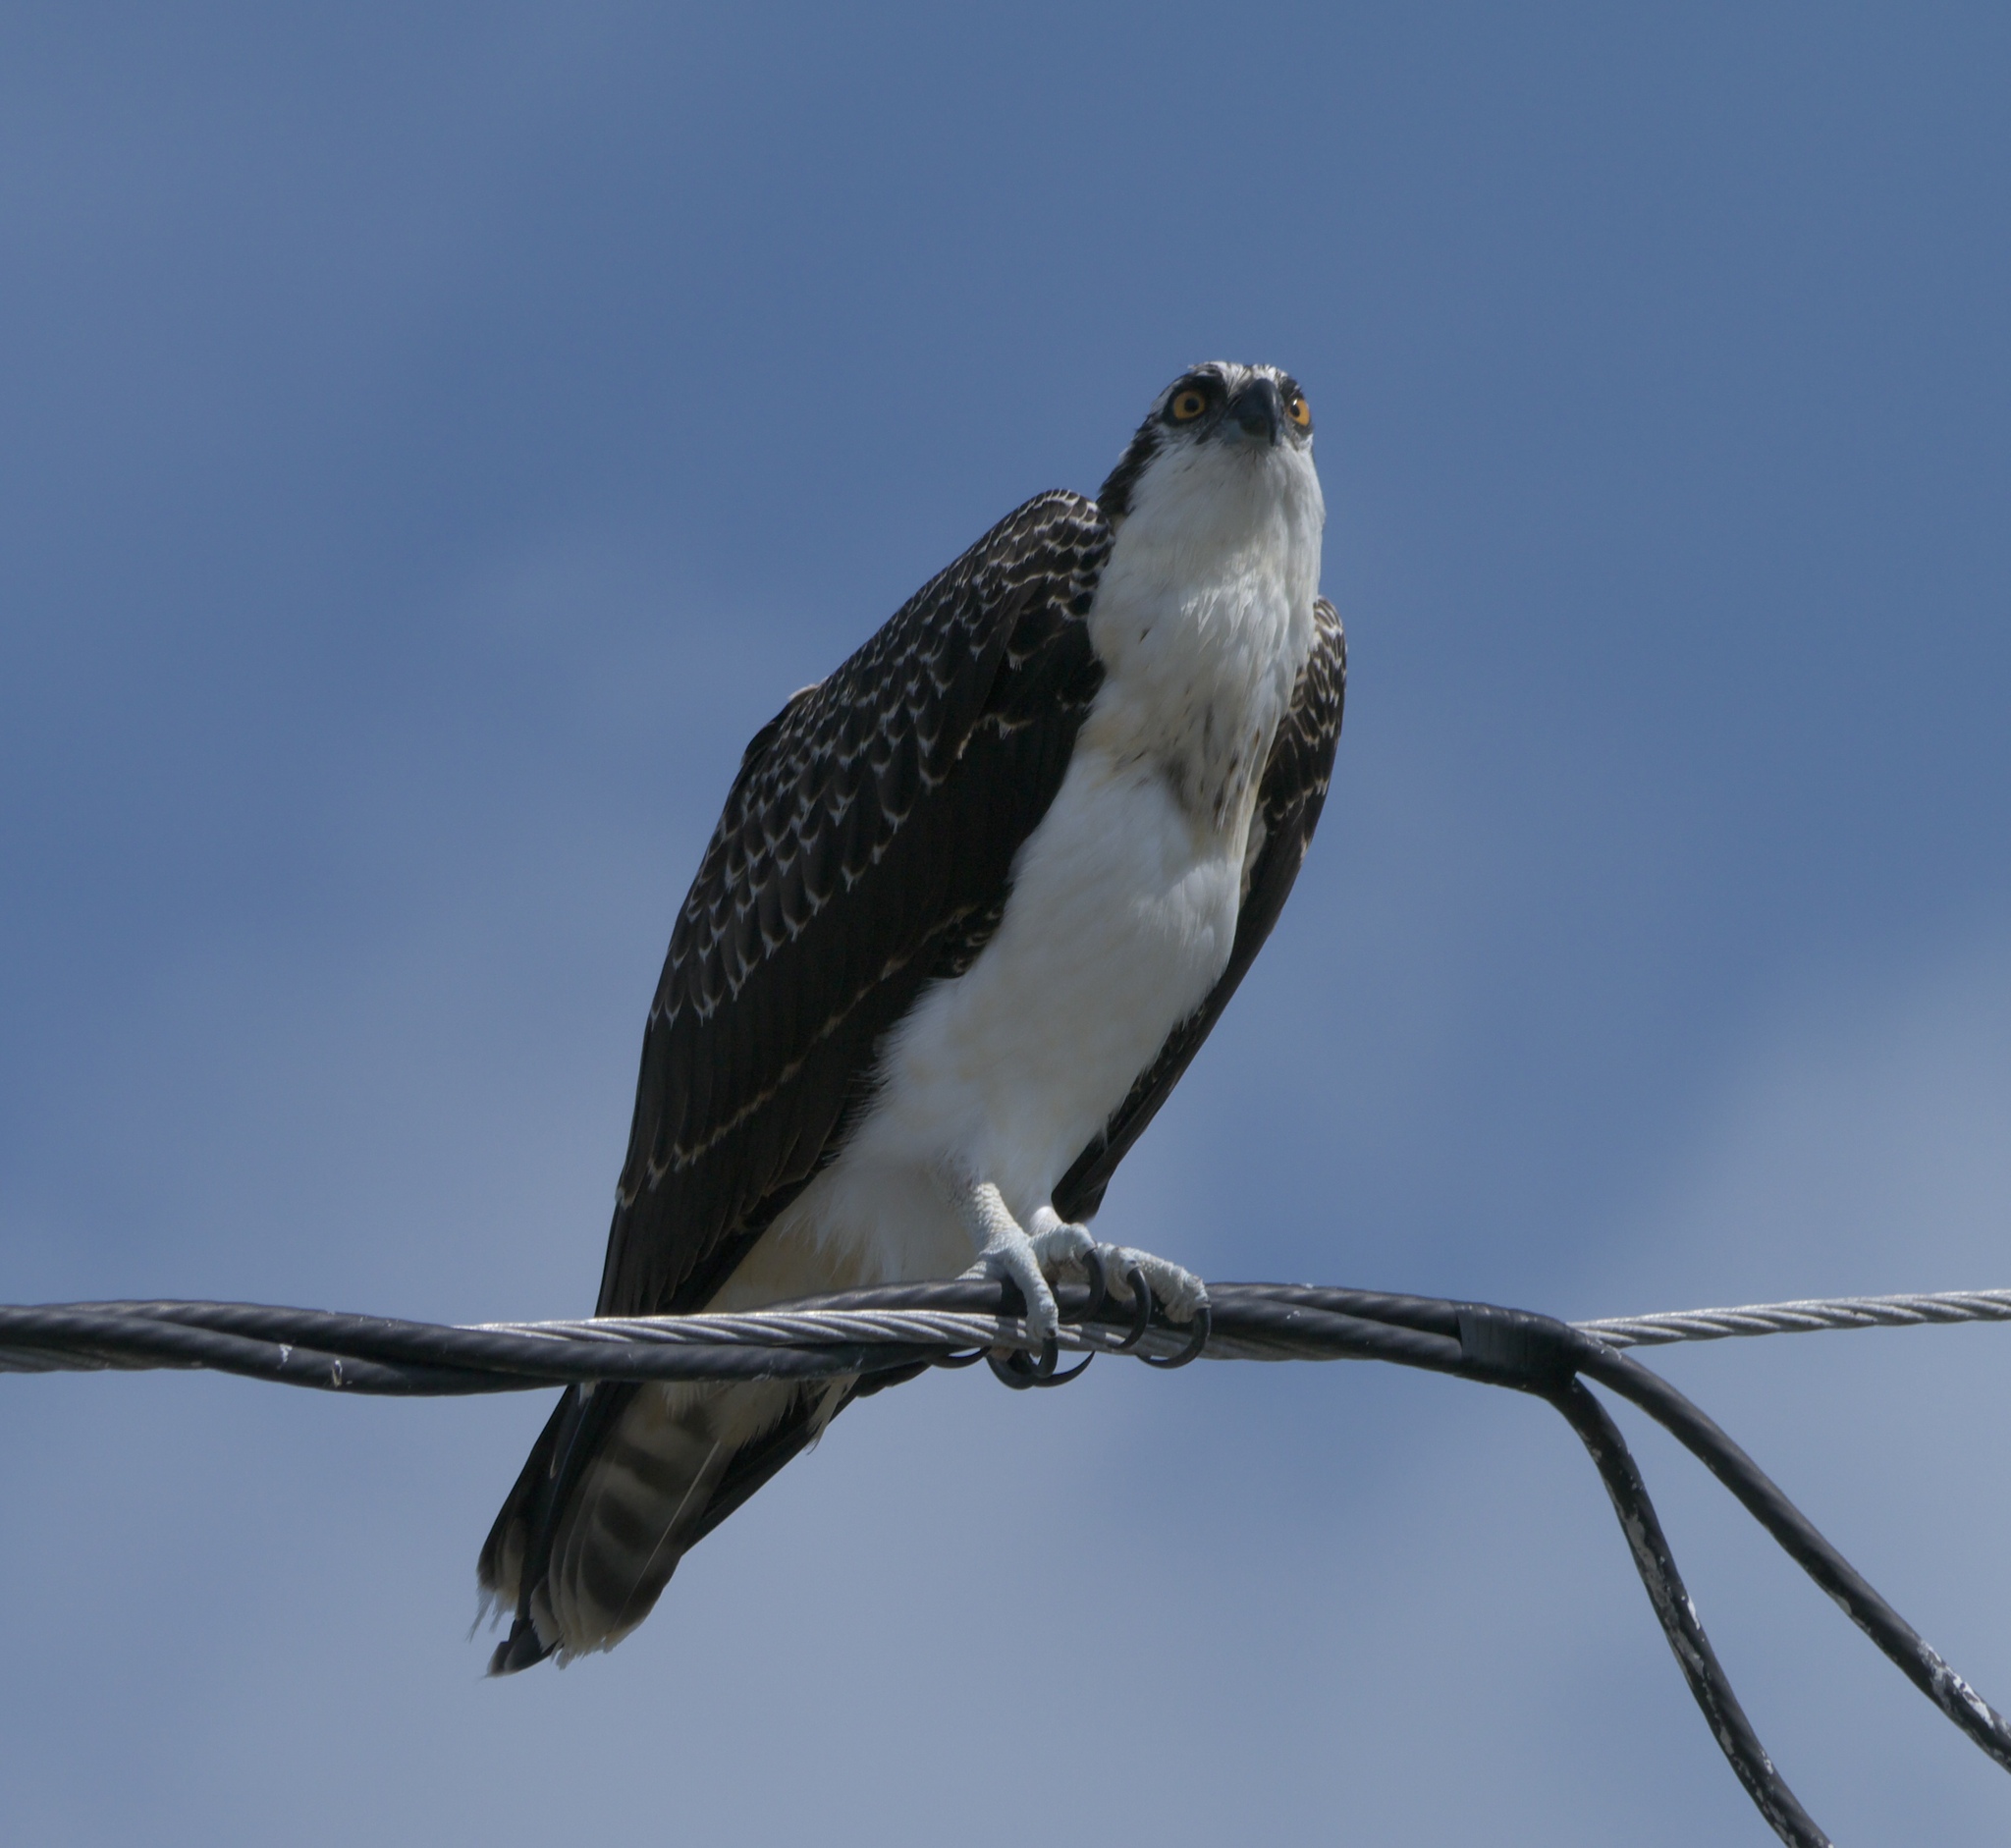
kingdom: Animalia
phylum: Chordata
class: Aves
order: Accipitriformes
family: Pandionidae
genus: Pandion
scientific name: Pandion haliaetus
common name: Osprey
